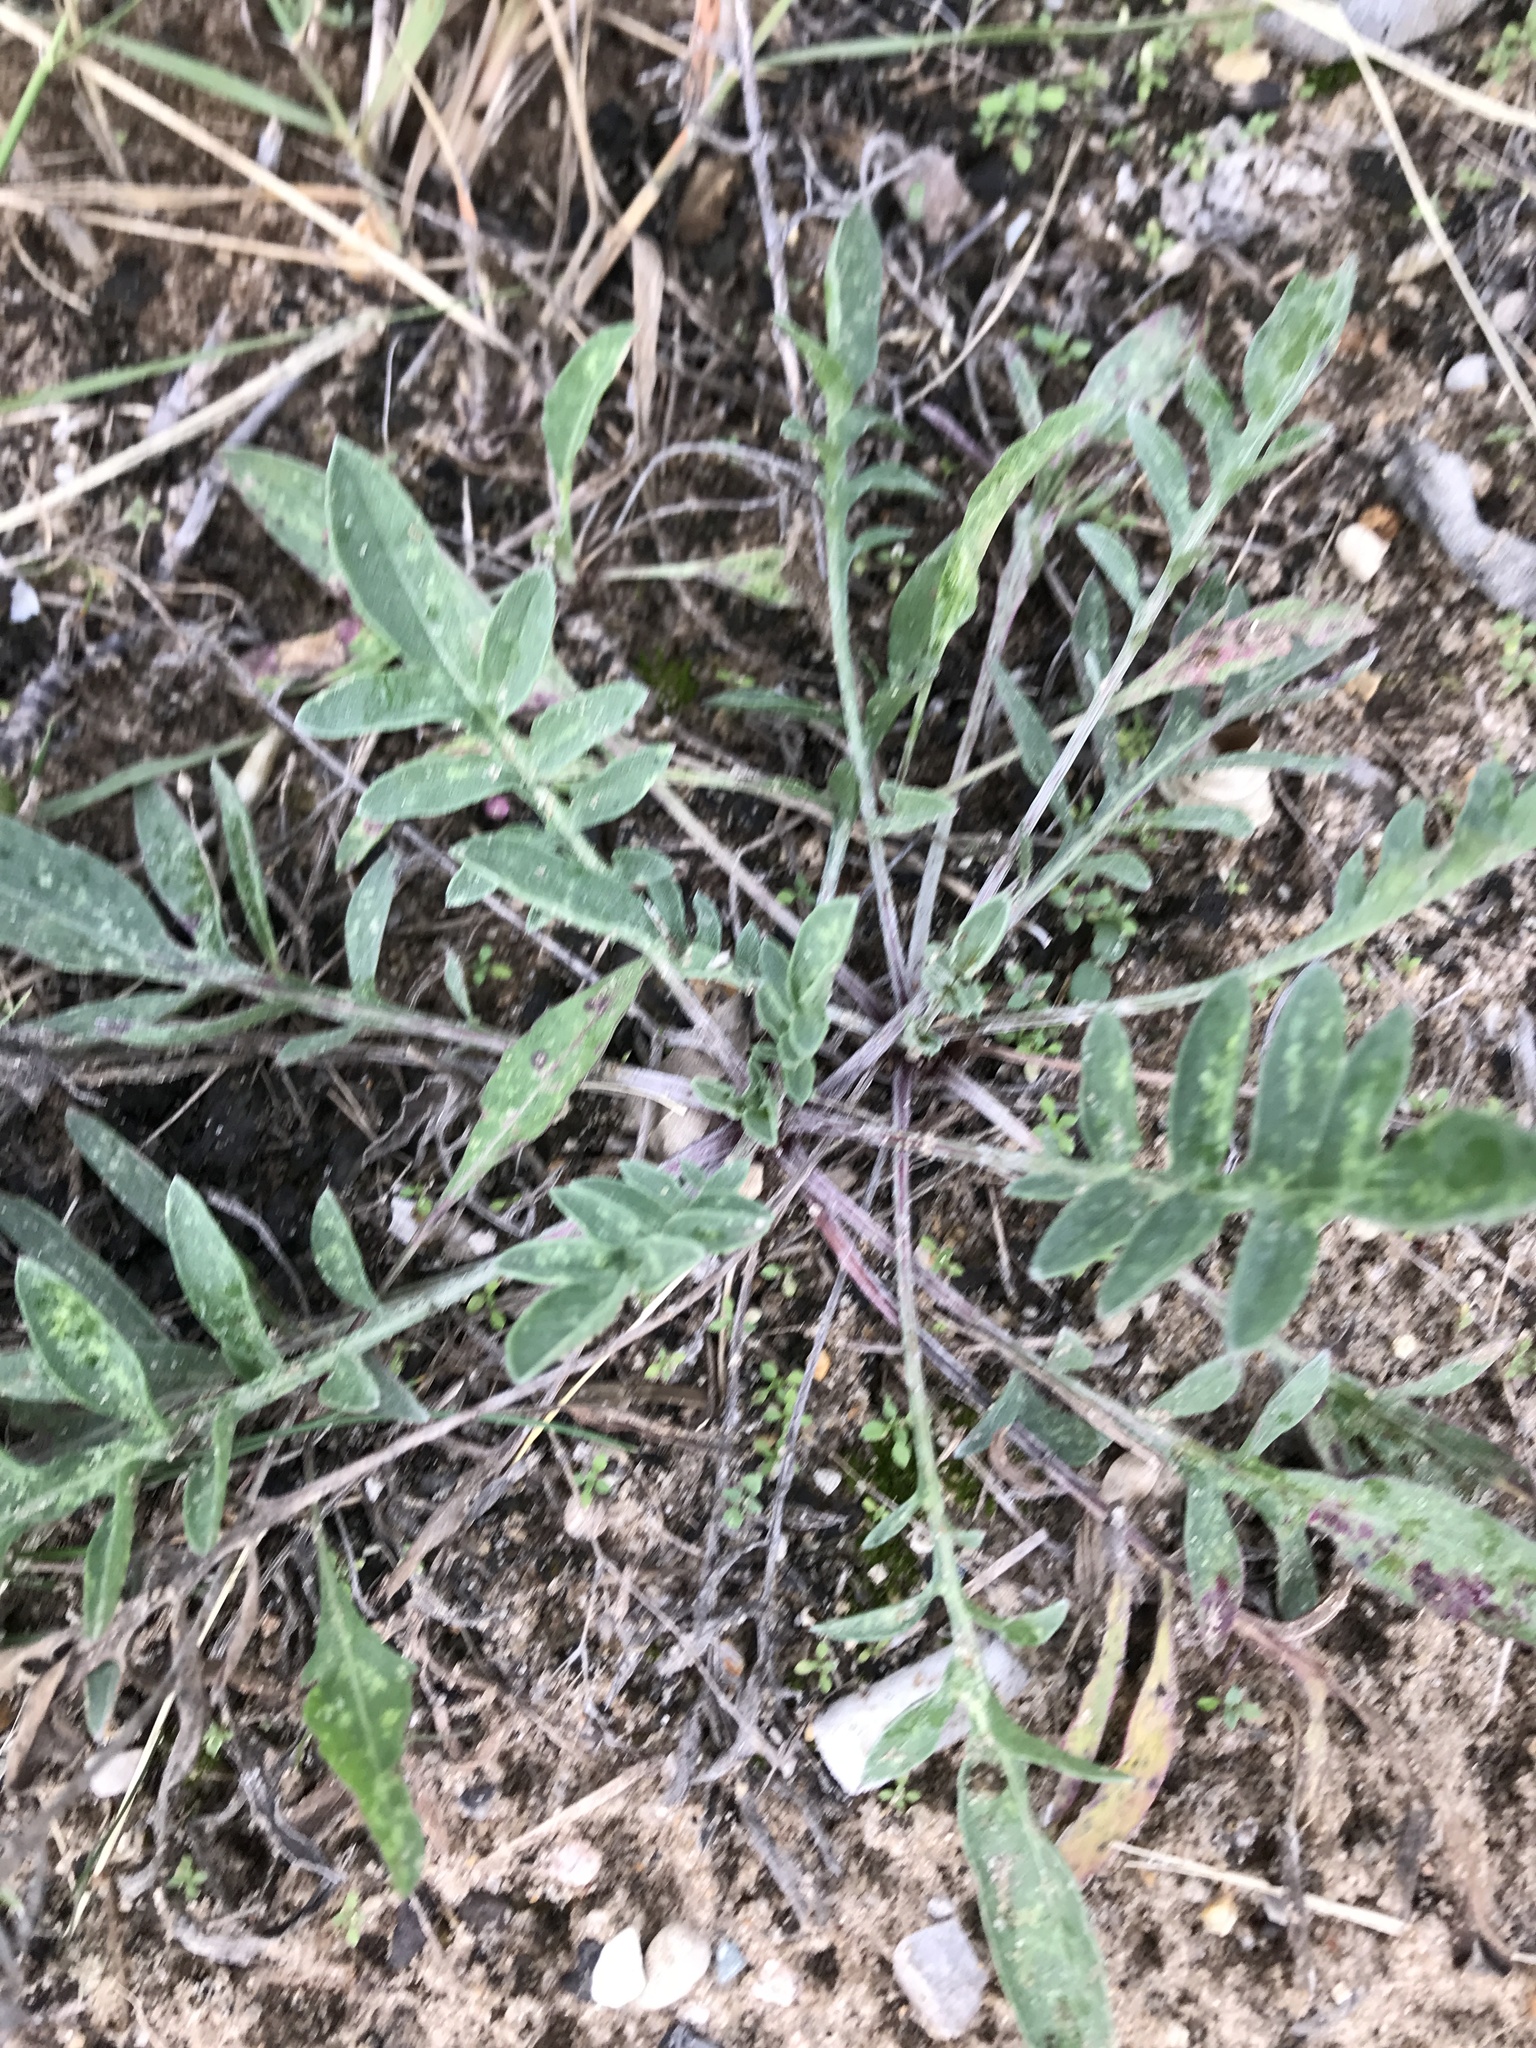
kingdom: Plantae
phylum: Tracheophyta
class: Magnoliopsida
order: Asterales
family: Asteraceae
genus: Centaurea
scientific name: Centaurea stoebe
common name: Spotted knapweed
